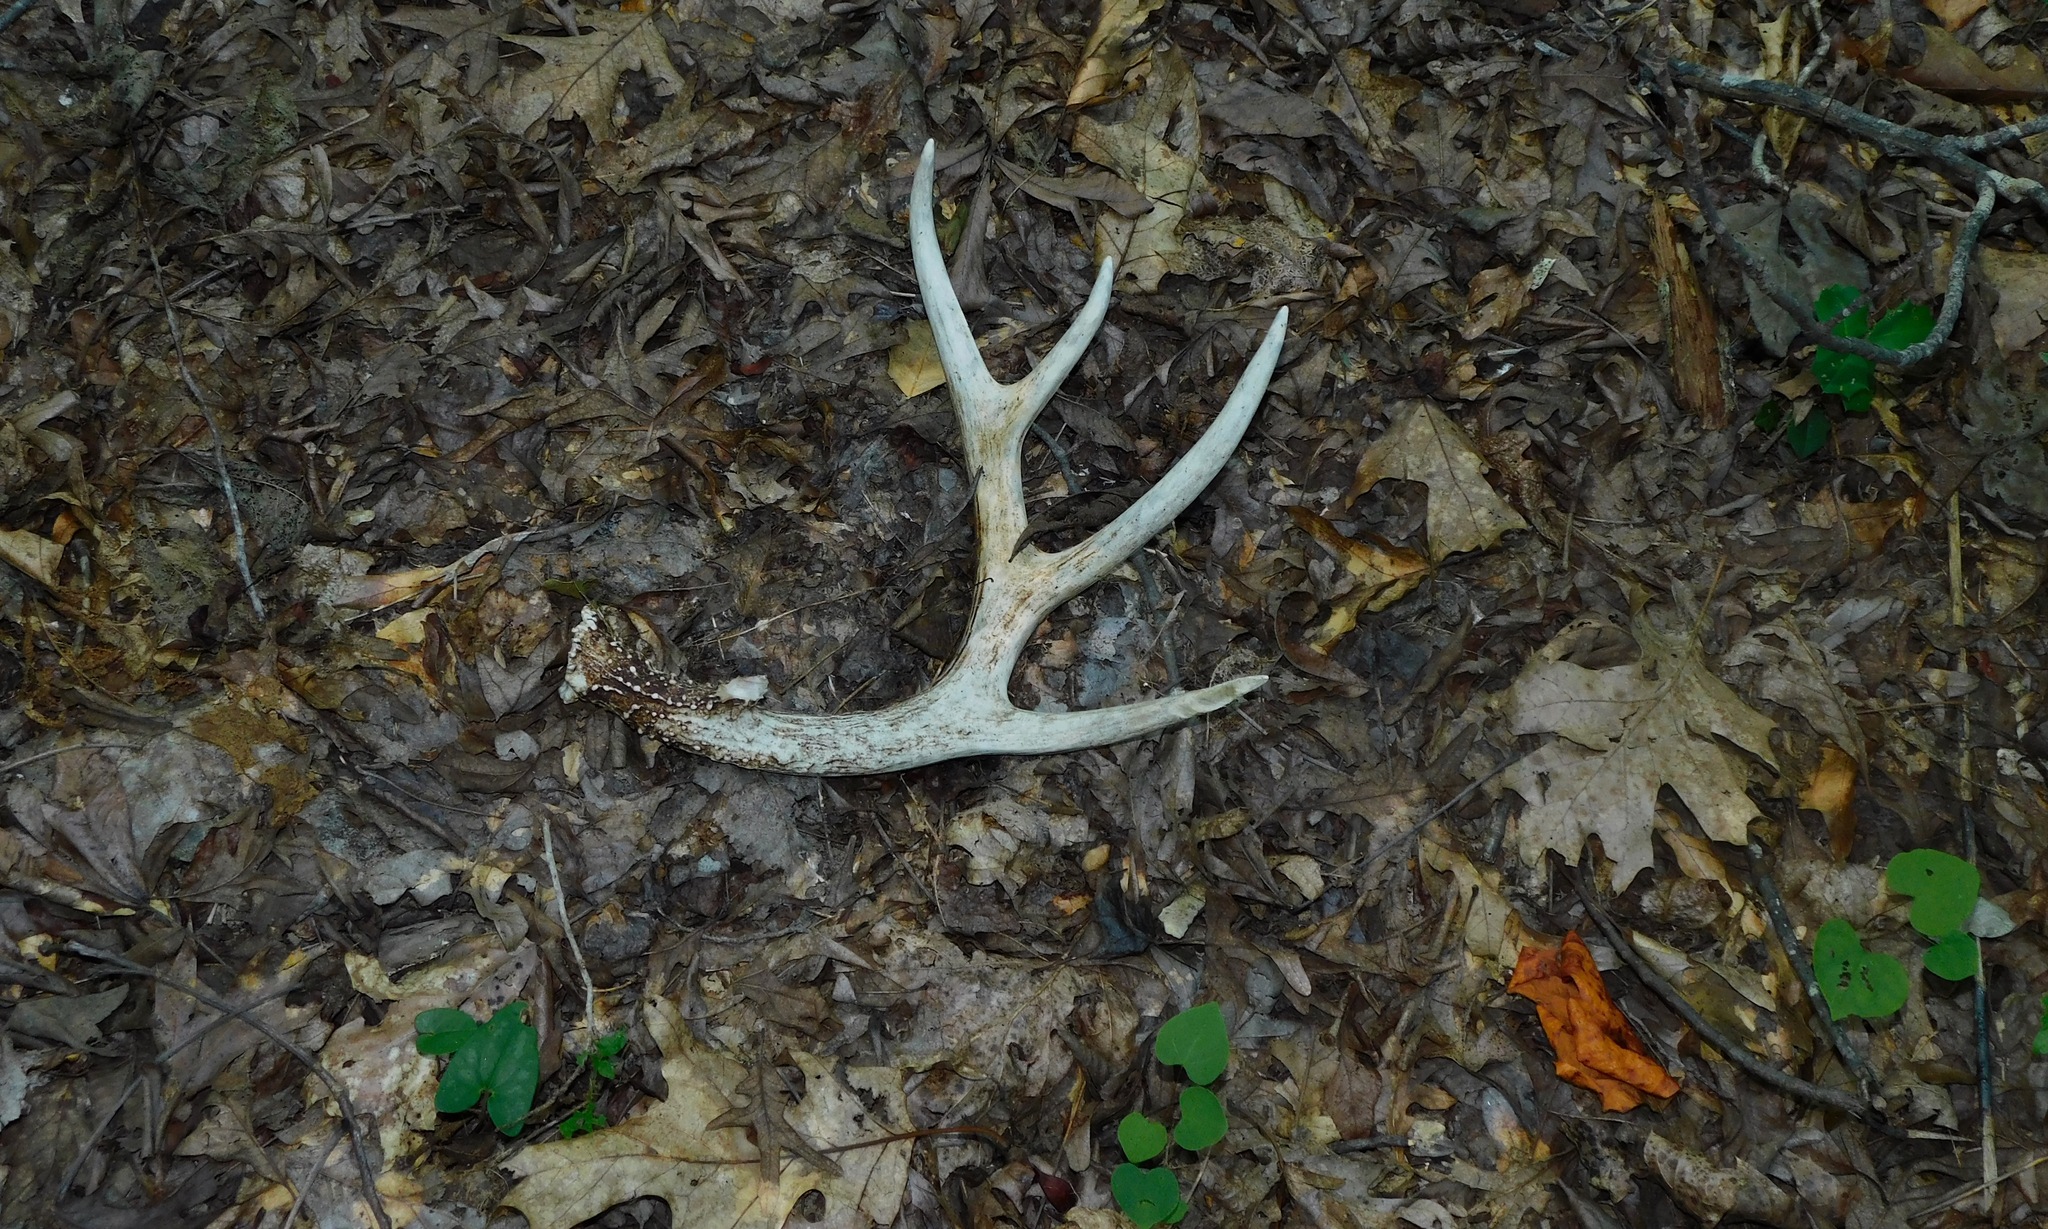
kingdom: Animalia
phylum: Chordata
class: Mammalia
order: Artiodactyla
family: Cervidae
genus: Odocoileus
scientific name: Odocoileus virginianus
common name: White-tailed deer
